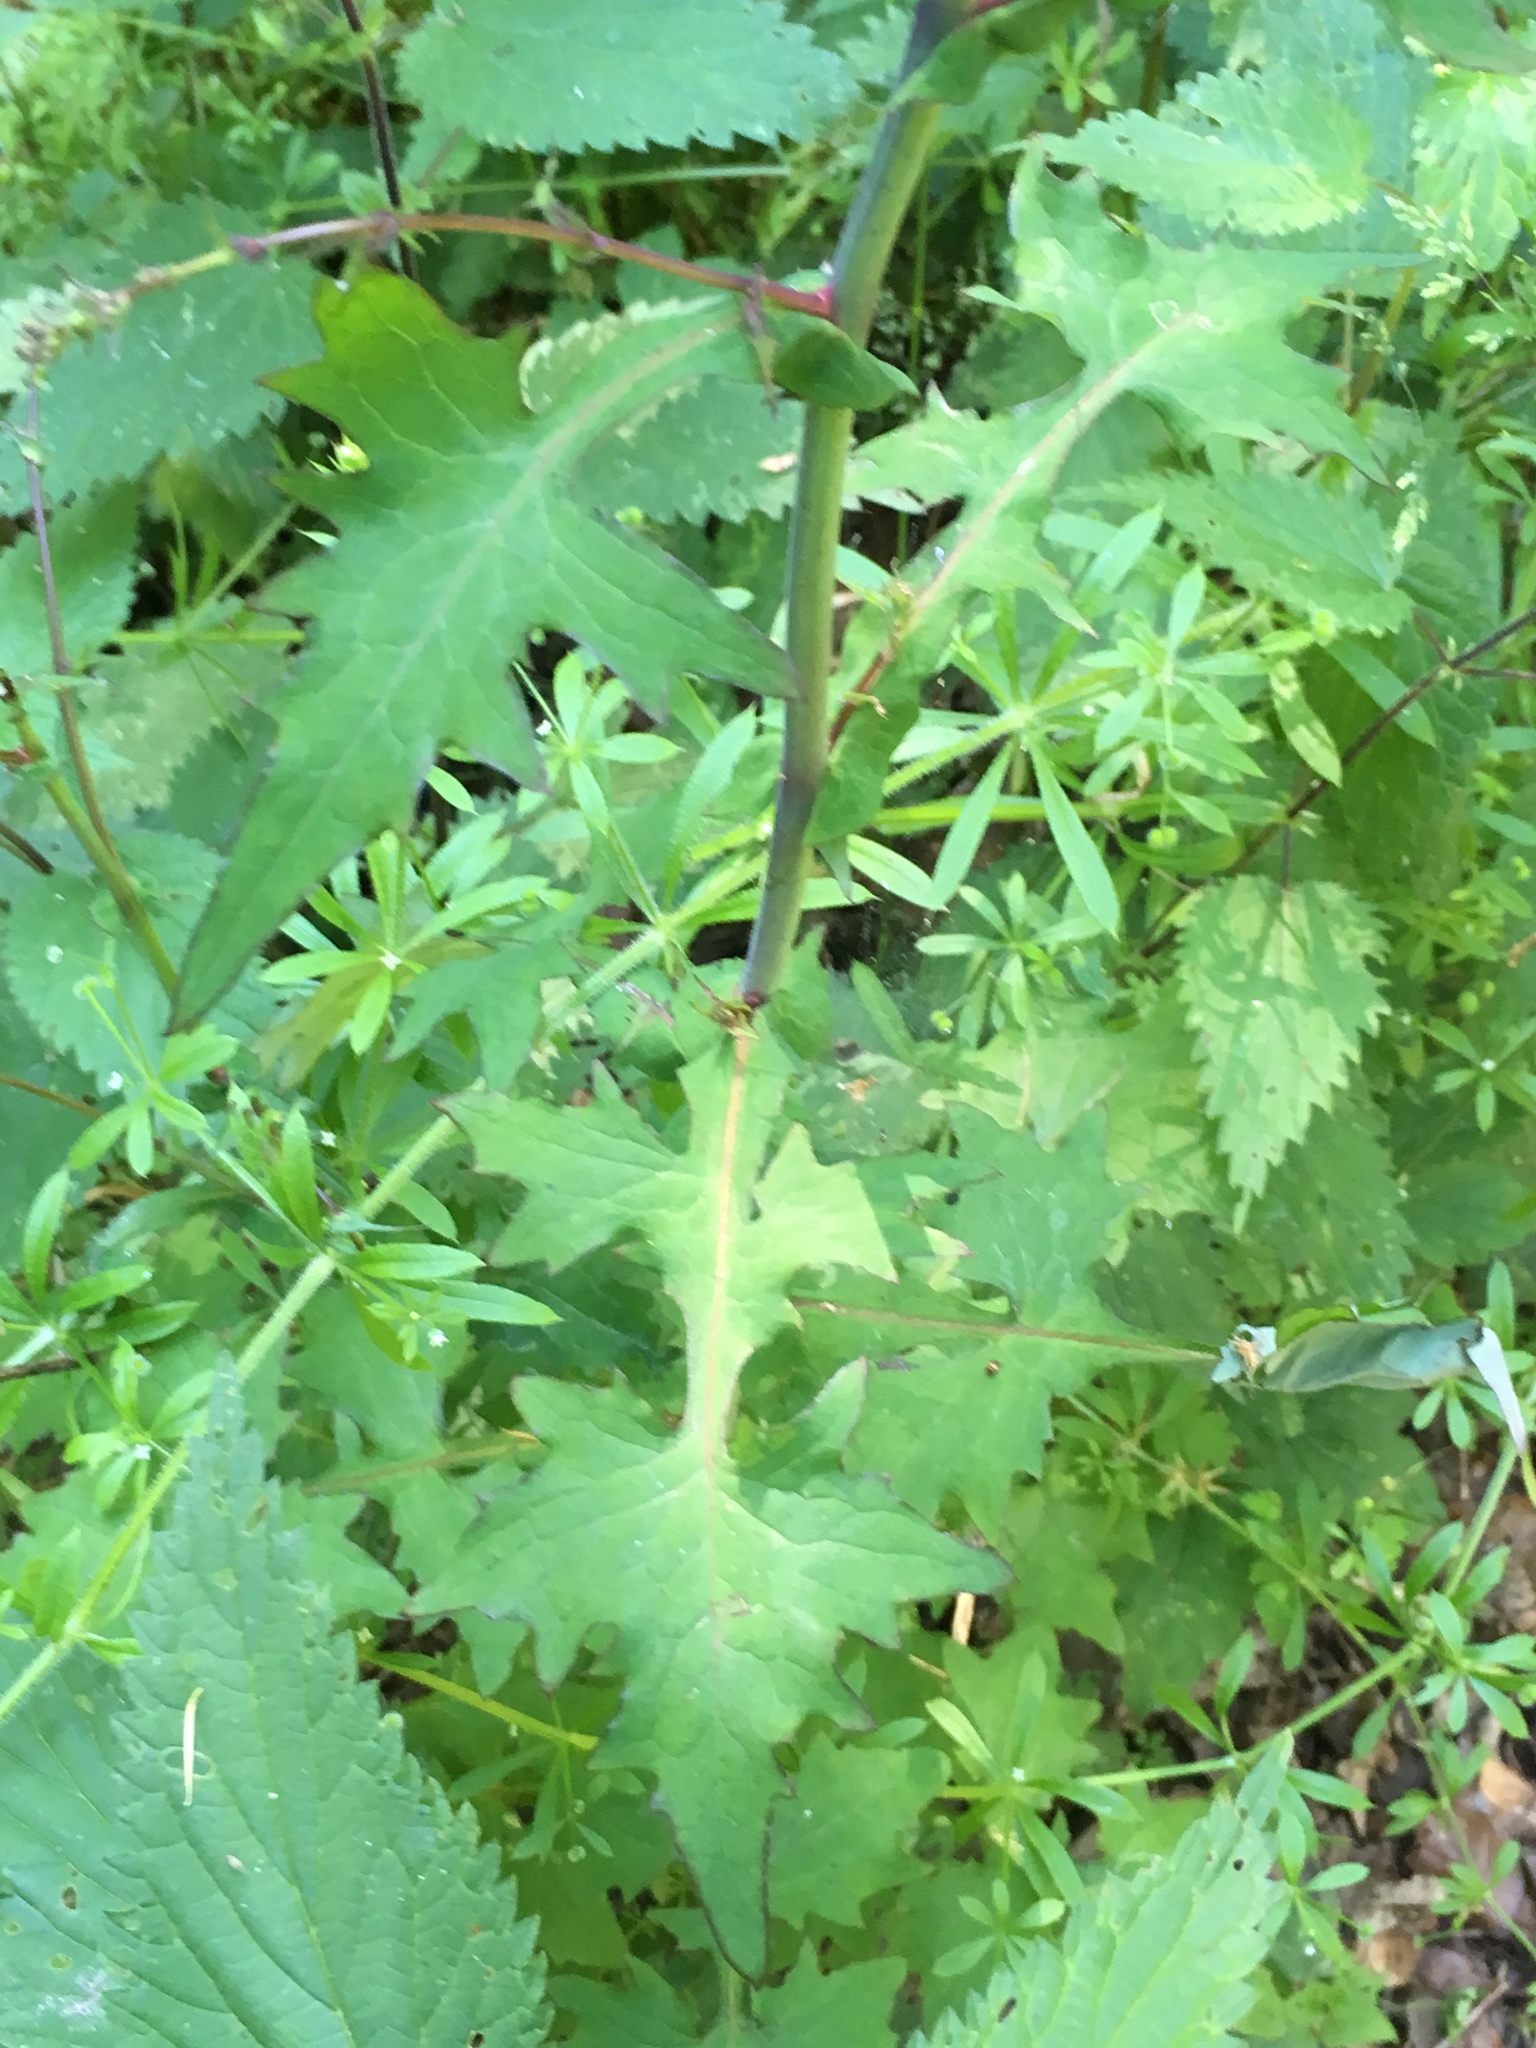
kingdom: Plantae
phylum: Tracheophyta
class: Magnoliopsida
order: Asterales
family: Asteraceae
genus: Mycelis
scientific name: Mycelis muralis
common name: Wall lettuce
